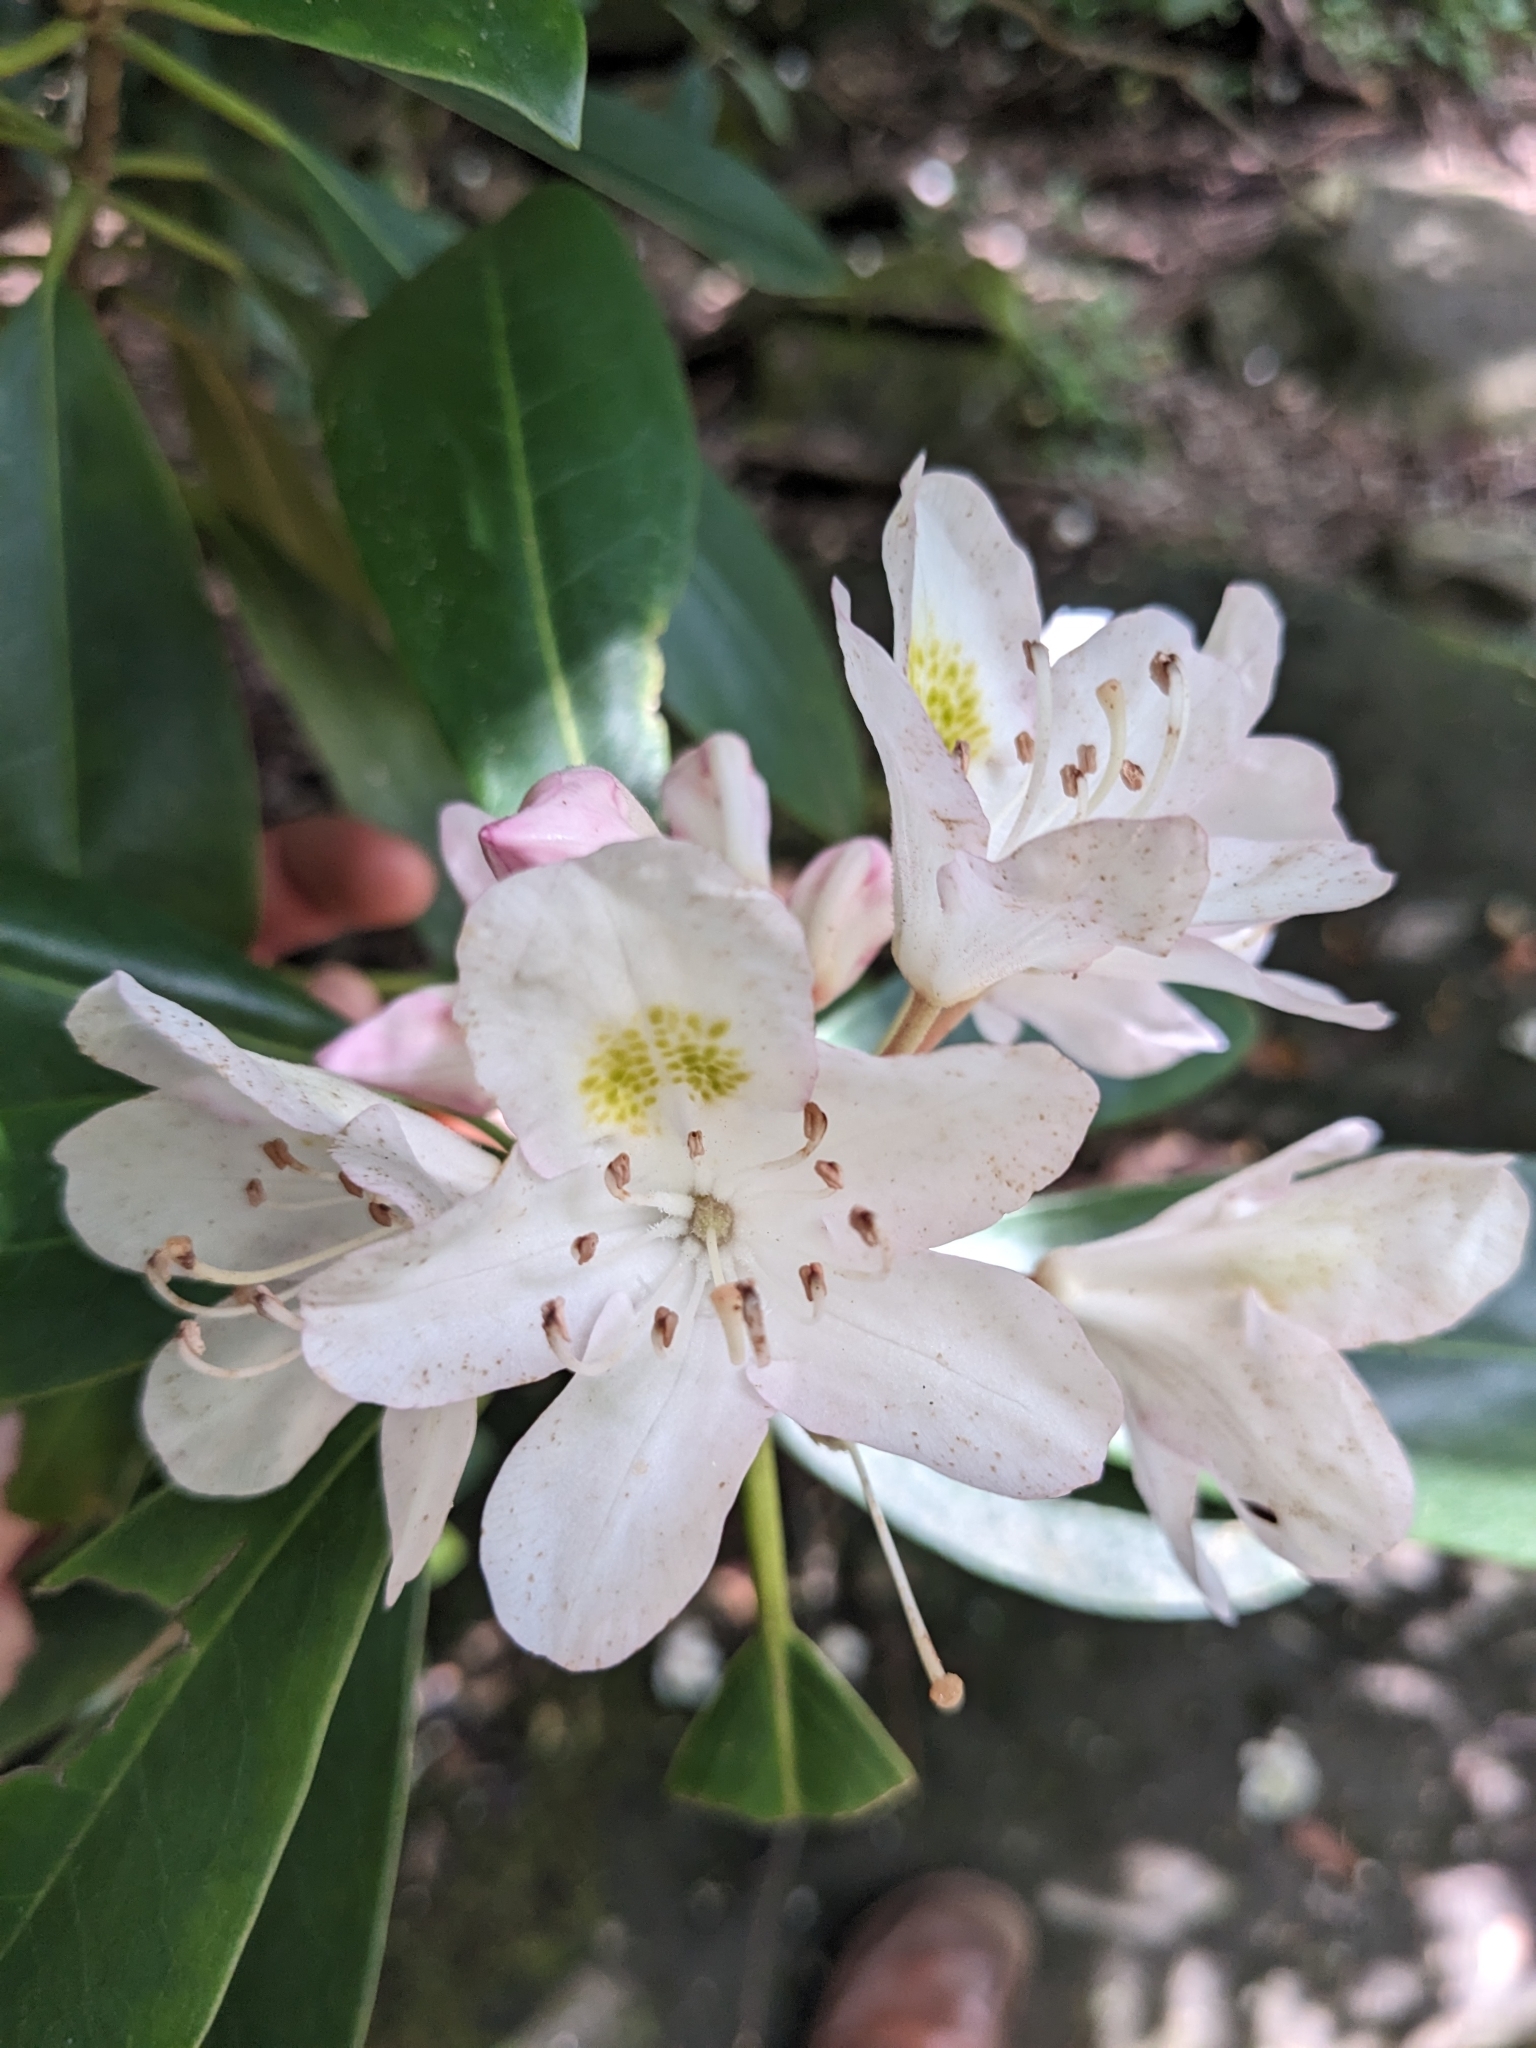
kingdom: Plantae
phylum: Tracheophyta
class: Magnoliopsida
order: Ericales
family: Ericaceae
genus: Rhododendron
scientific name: Rhododendron maximum
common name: Great rhododendron
